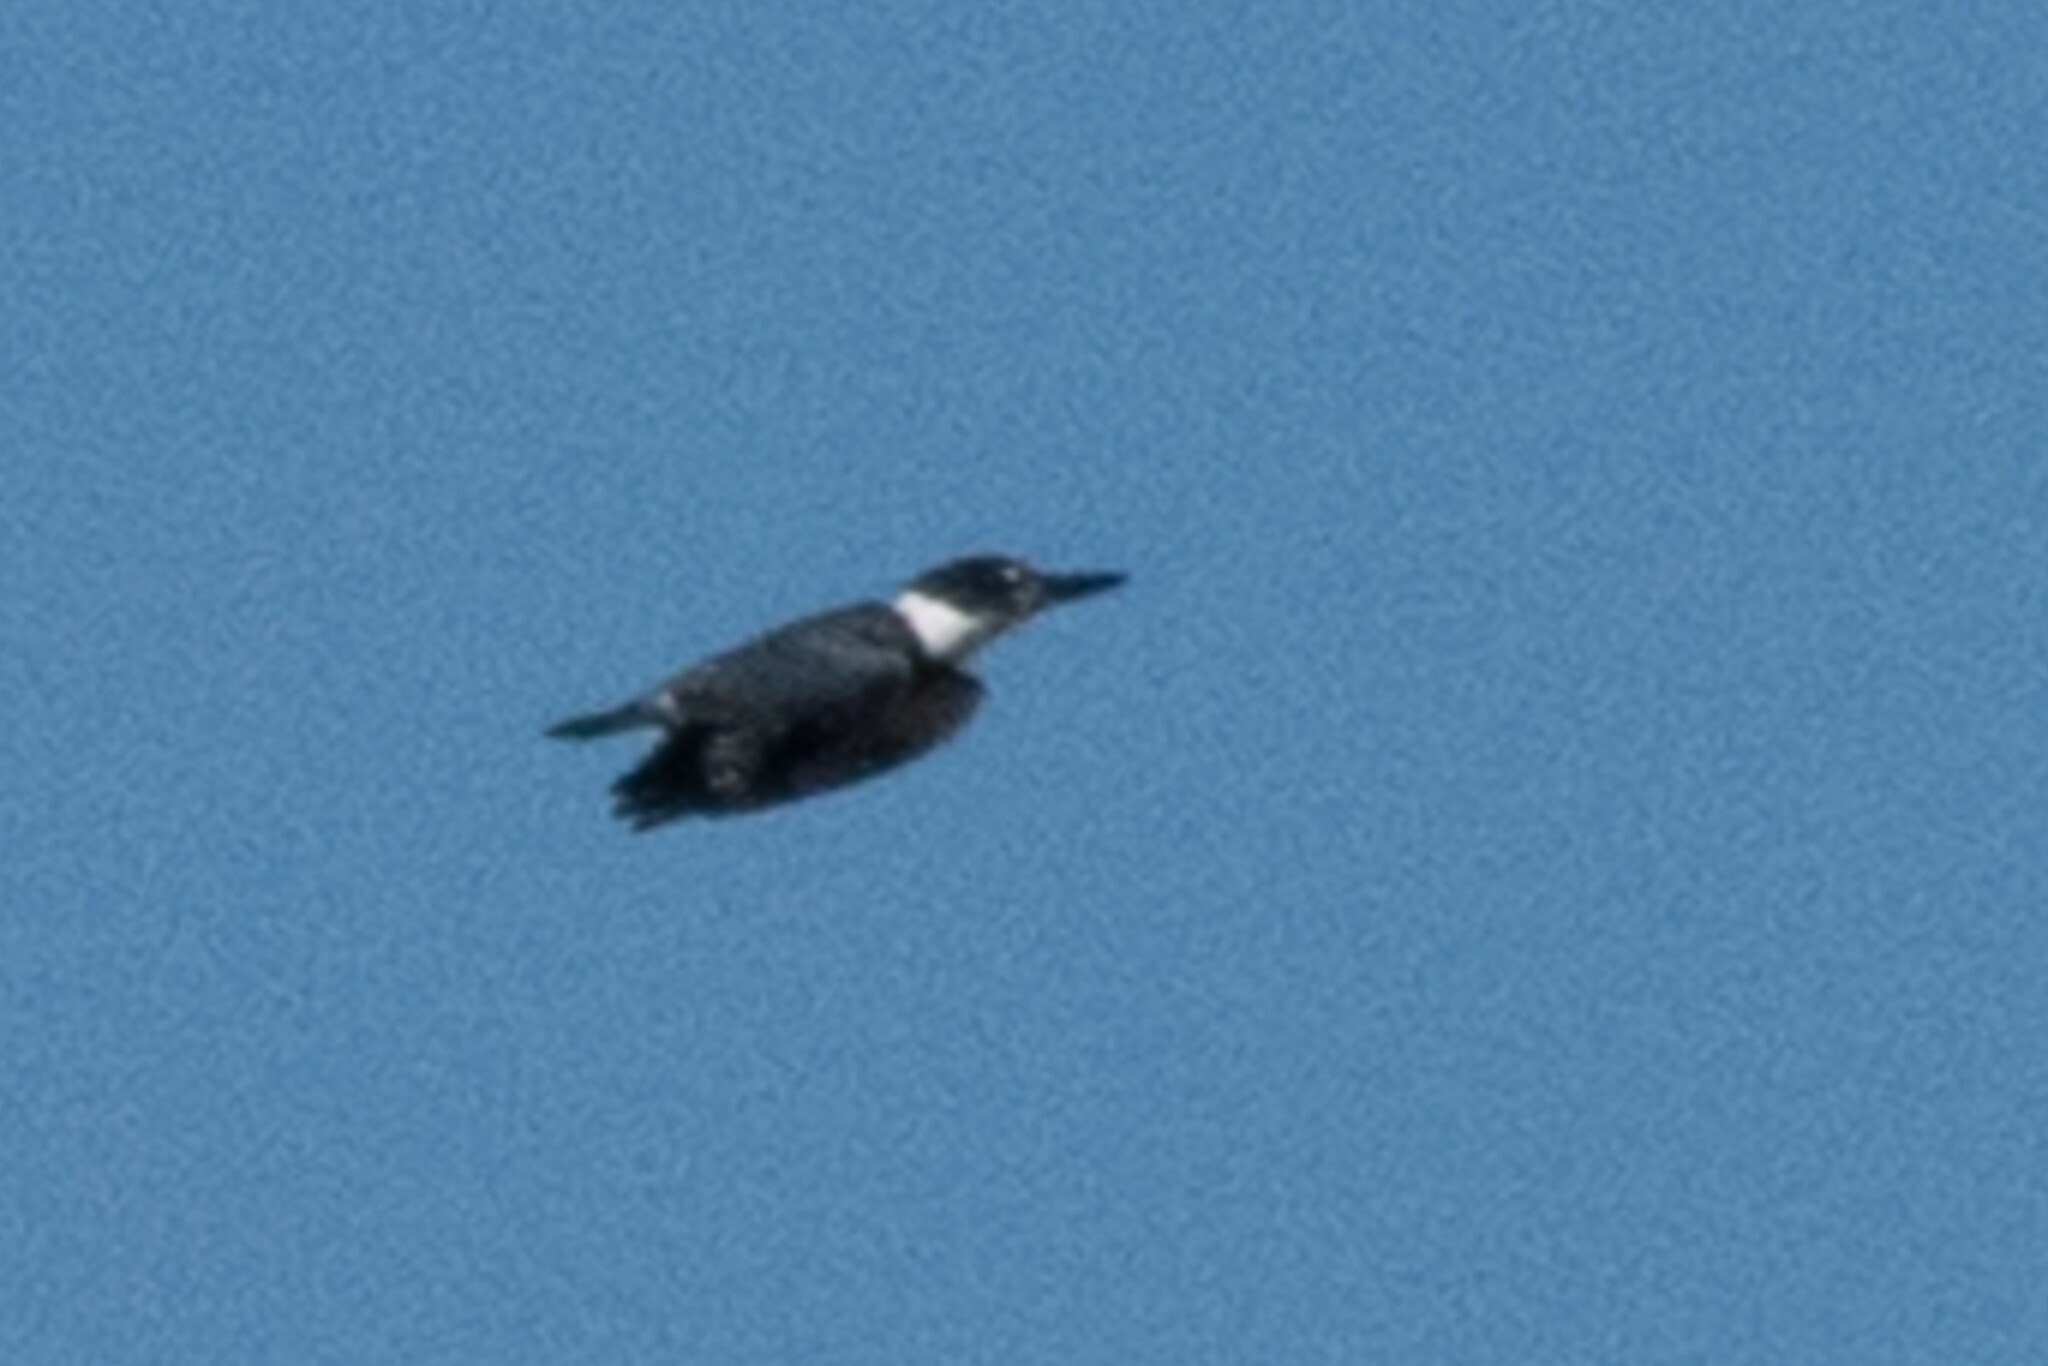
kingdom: Animalia
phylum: Chordata
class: Aves
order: Coraciiformes
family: Alcedinidae
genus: Megaceryle
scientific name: Megaceryle alcyon
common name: Belted kingfisher
